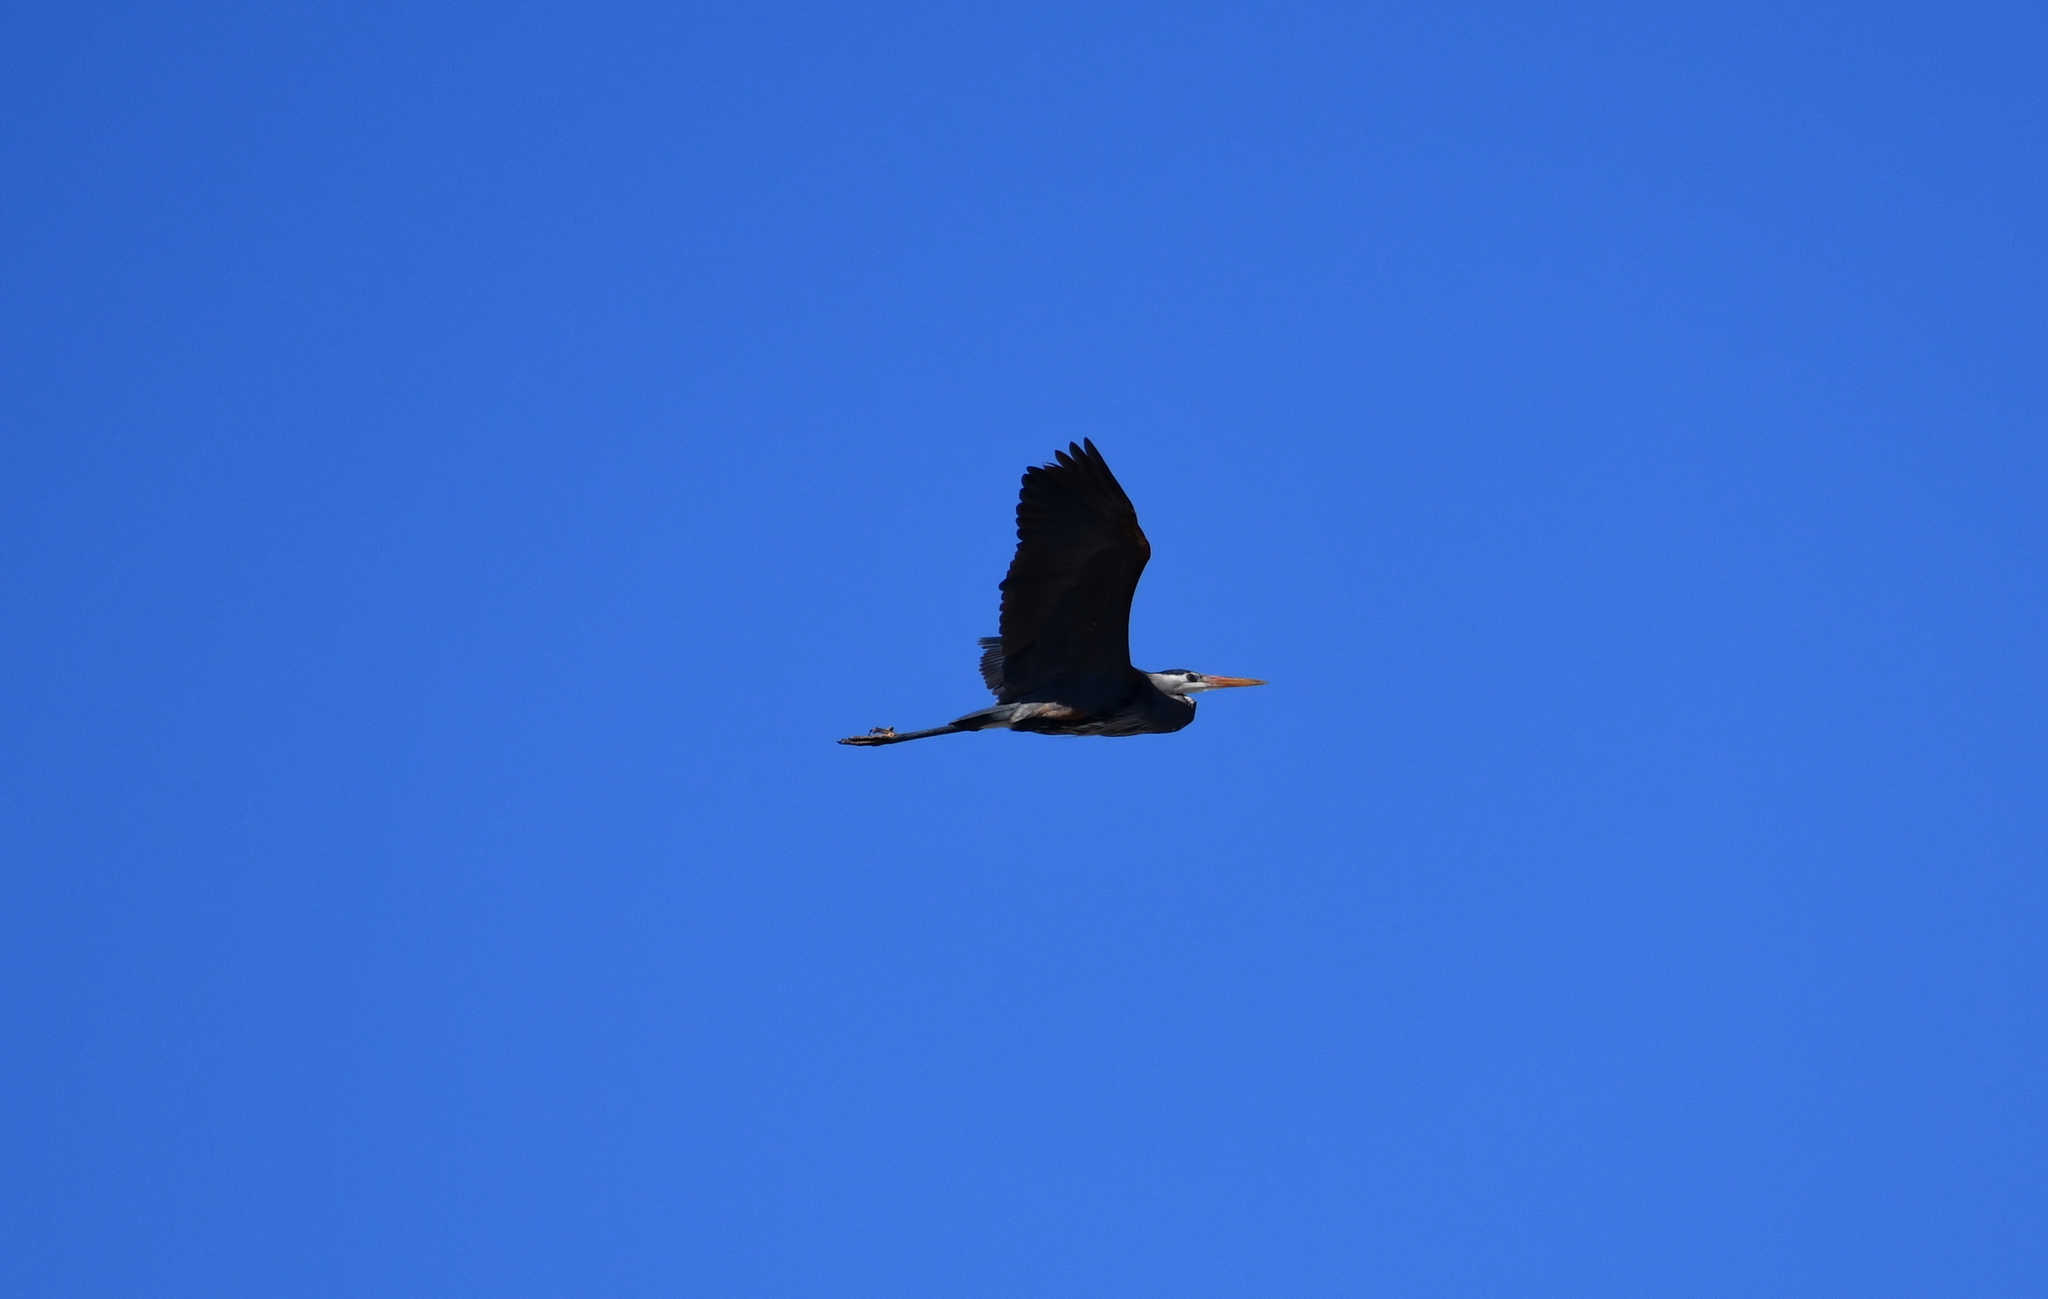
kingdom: Animalia
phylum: Chordata
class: Aves
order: Pelecaniformes
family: Ardeidae
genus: Ardea
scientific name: Ardea herodias
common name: Great blue heron
